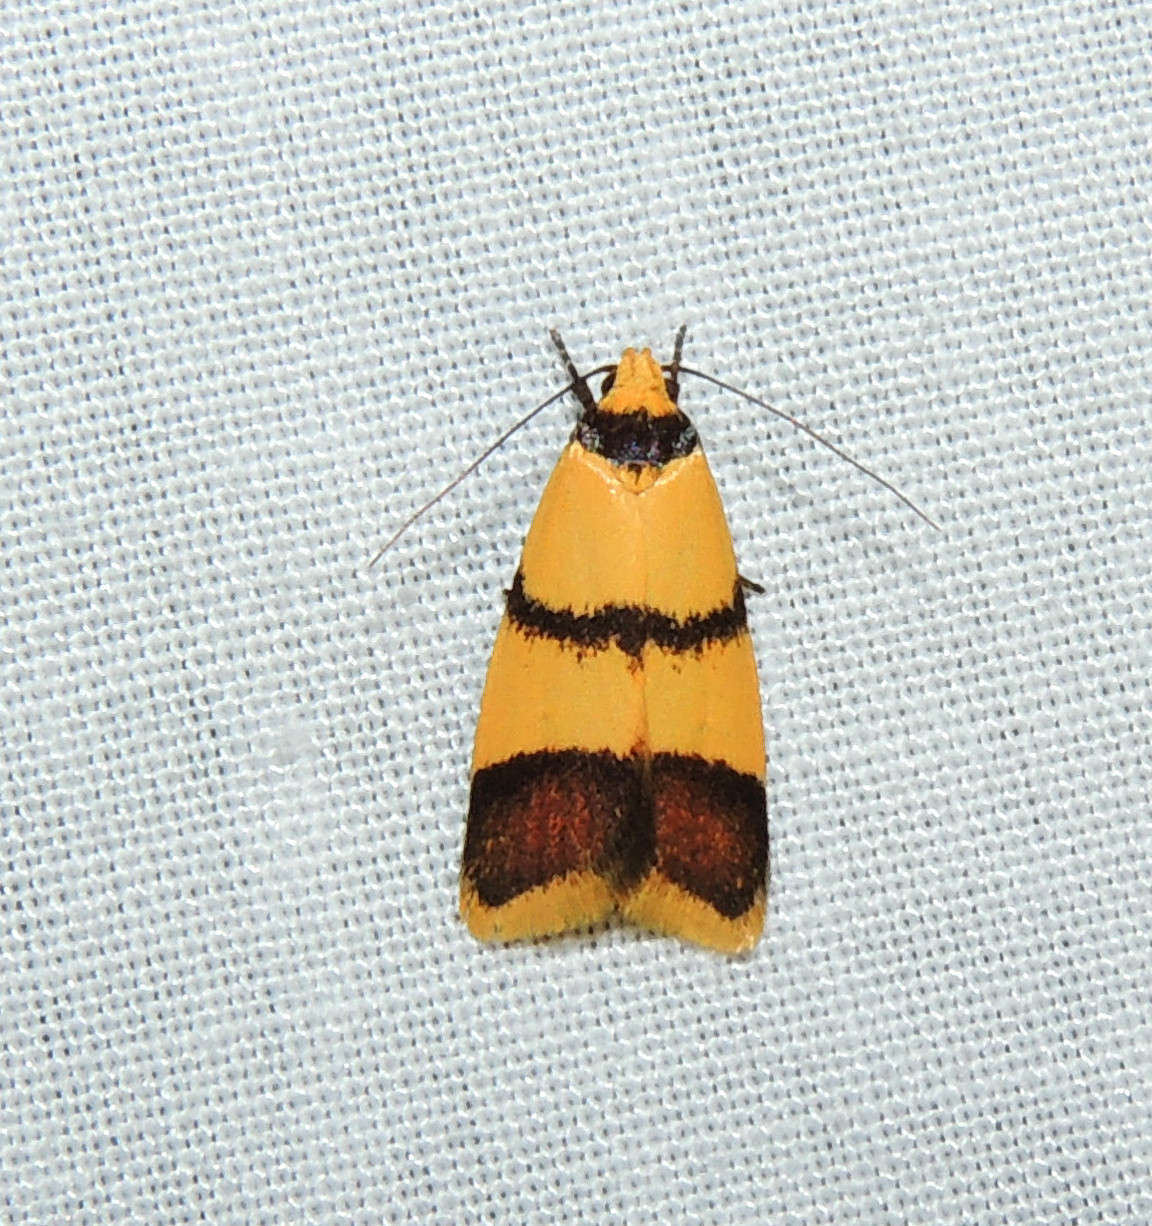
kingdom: Animalia
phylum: Arthropoda
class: Insecta
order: Lepidoptera
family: Oecophoridae
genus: Heteroteucha
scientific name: Heteroteucha translatella
